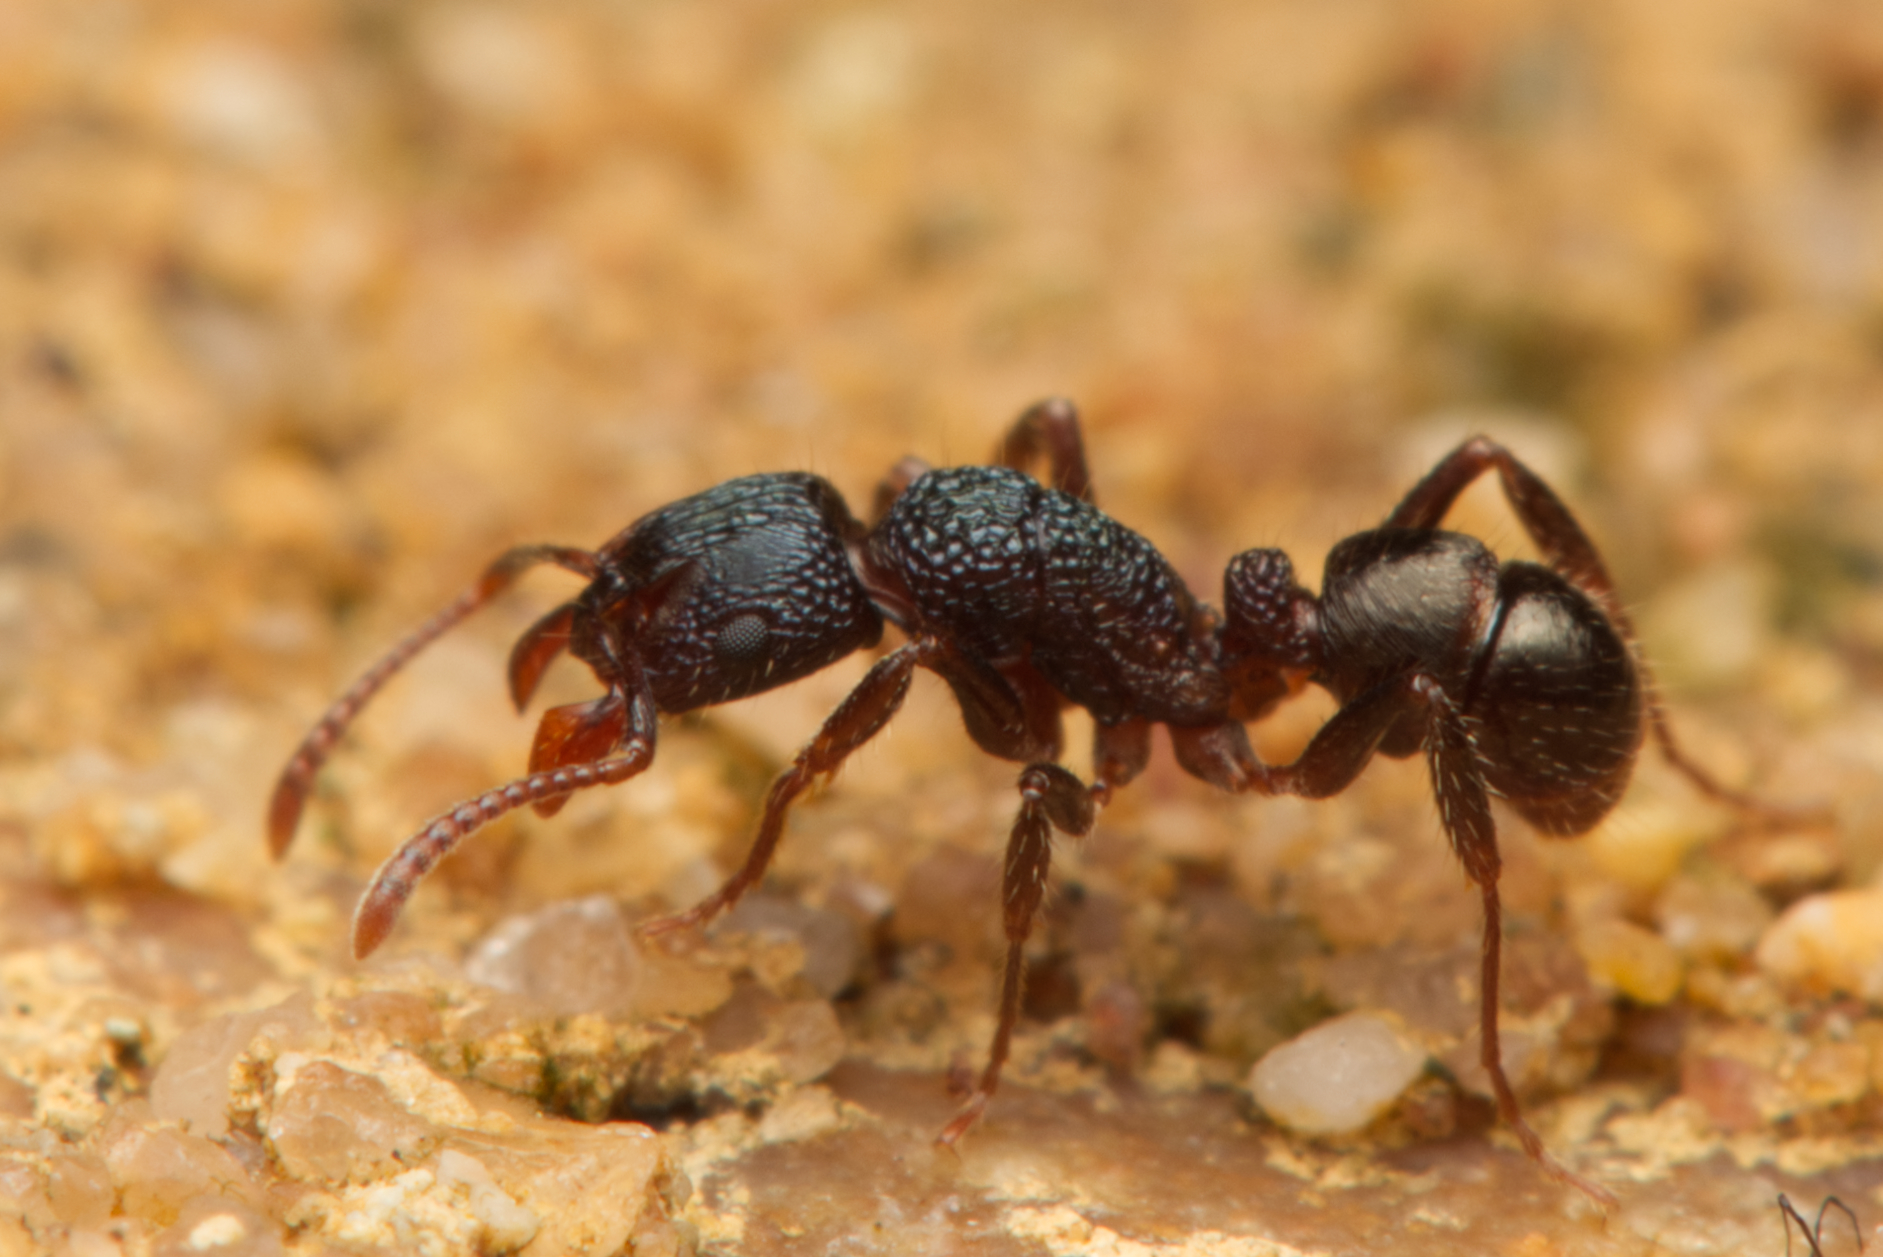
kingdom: Animalia
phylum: Arthropoda
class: Insecta
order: Hymenoptera
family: Formicidae
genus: Rhytidoponera
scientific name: Rhytidoponera victoriae
